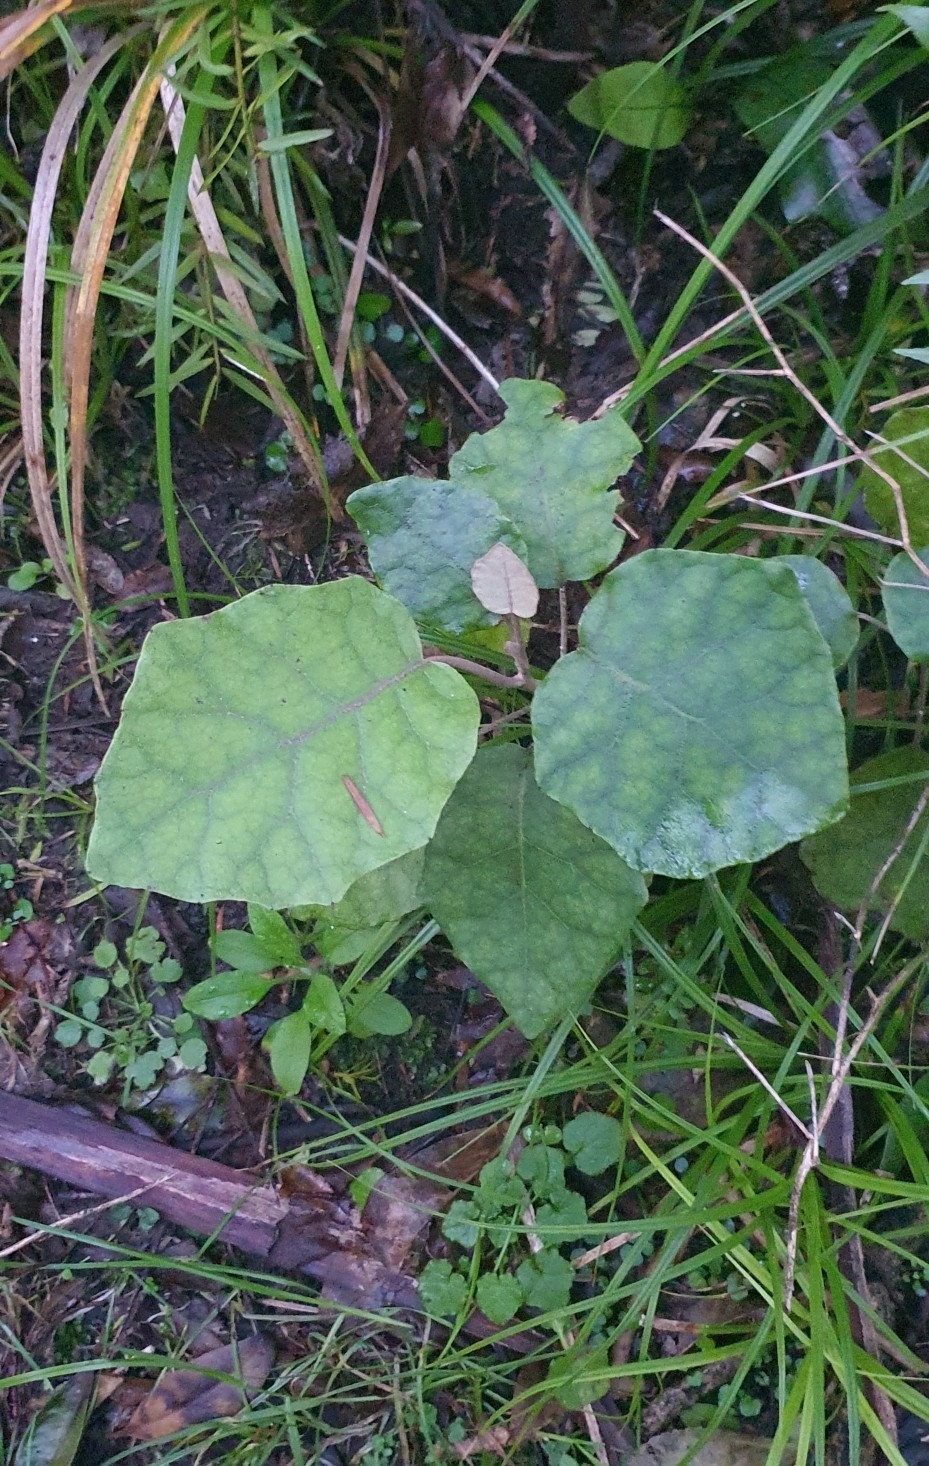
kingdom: Plantae
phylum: Tracheophyta
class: Magnoliopsida
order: Asterales
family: Asteraceae
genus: Brachyglottis
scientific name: Brachyglottis repanda
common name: Hedge ragwort
